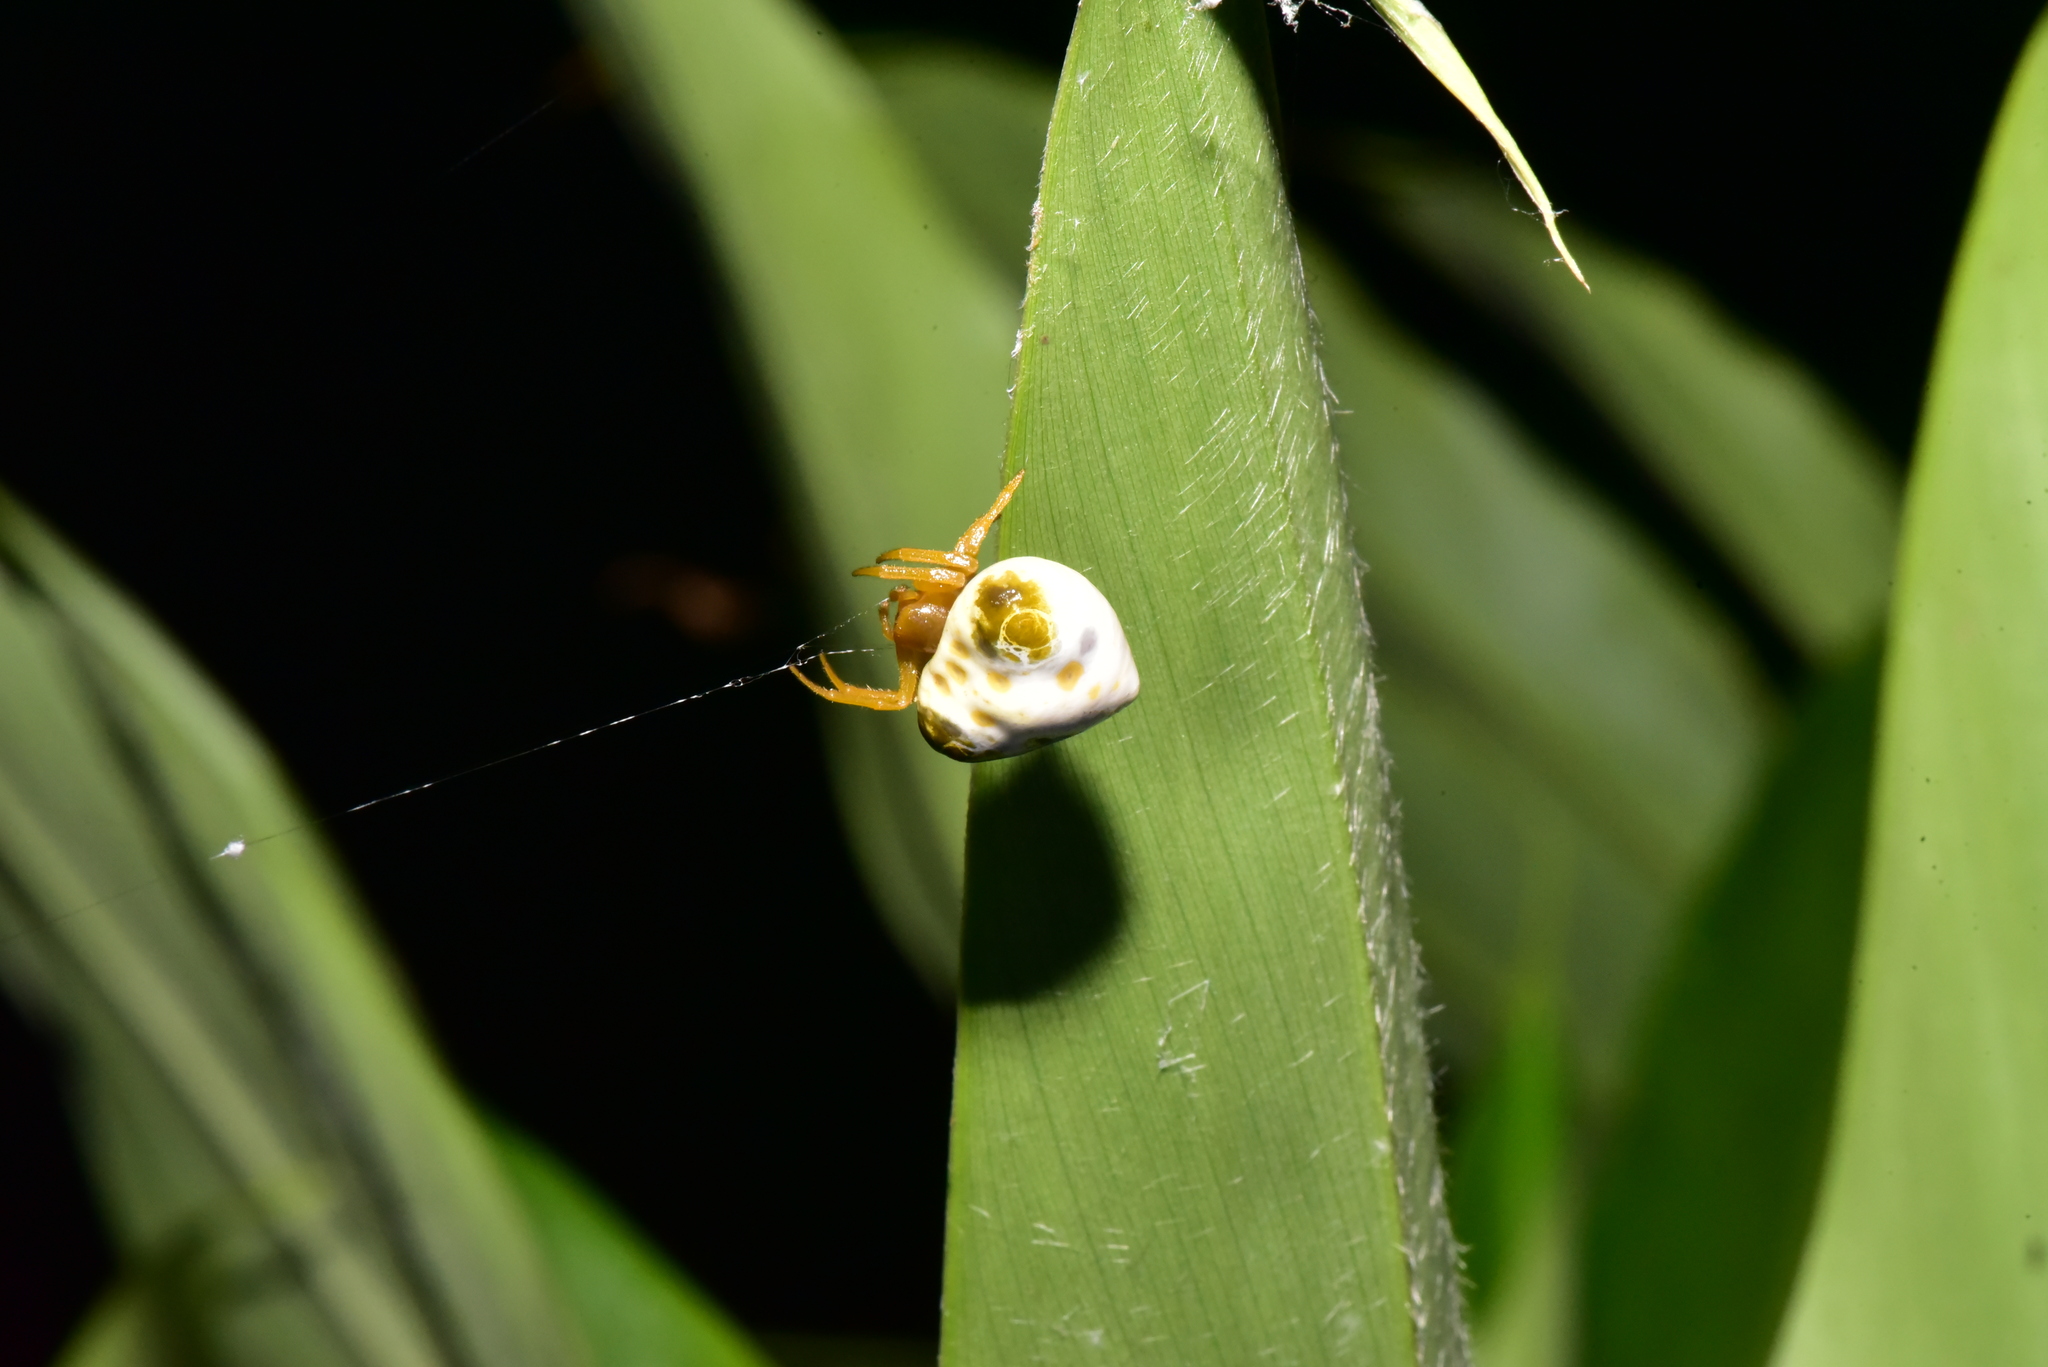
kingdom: Animalia
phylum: Arthropoda
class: Arachnida
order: Araneae
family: Araneidae
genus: Cyrtarachne
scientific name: Cyrtarachne bufo
